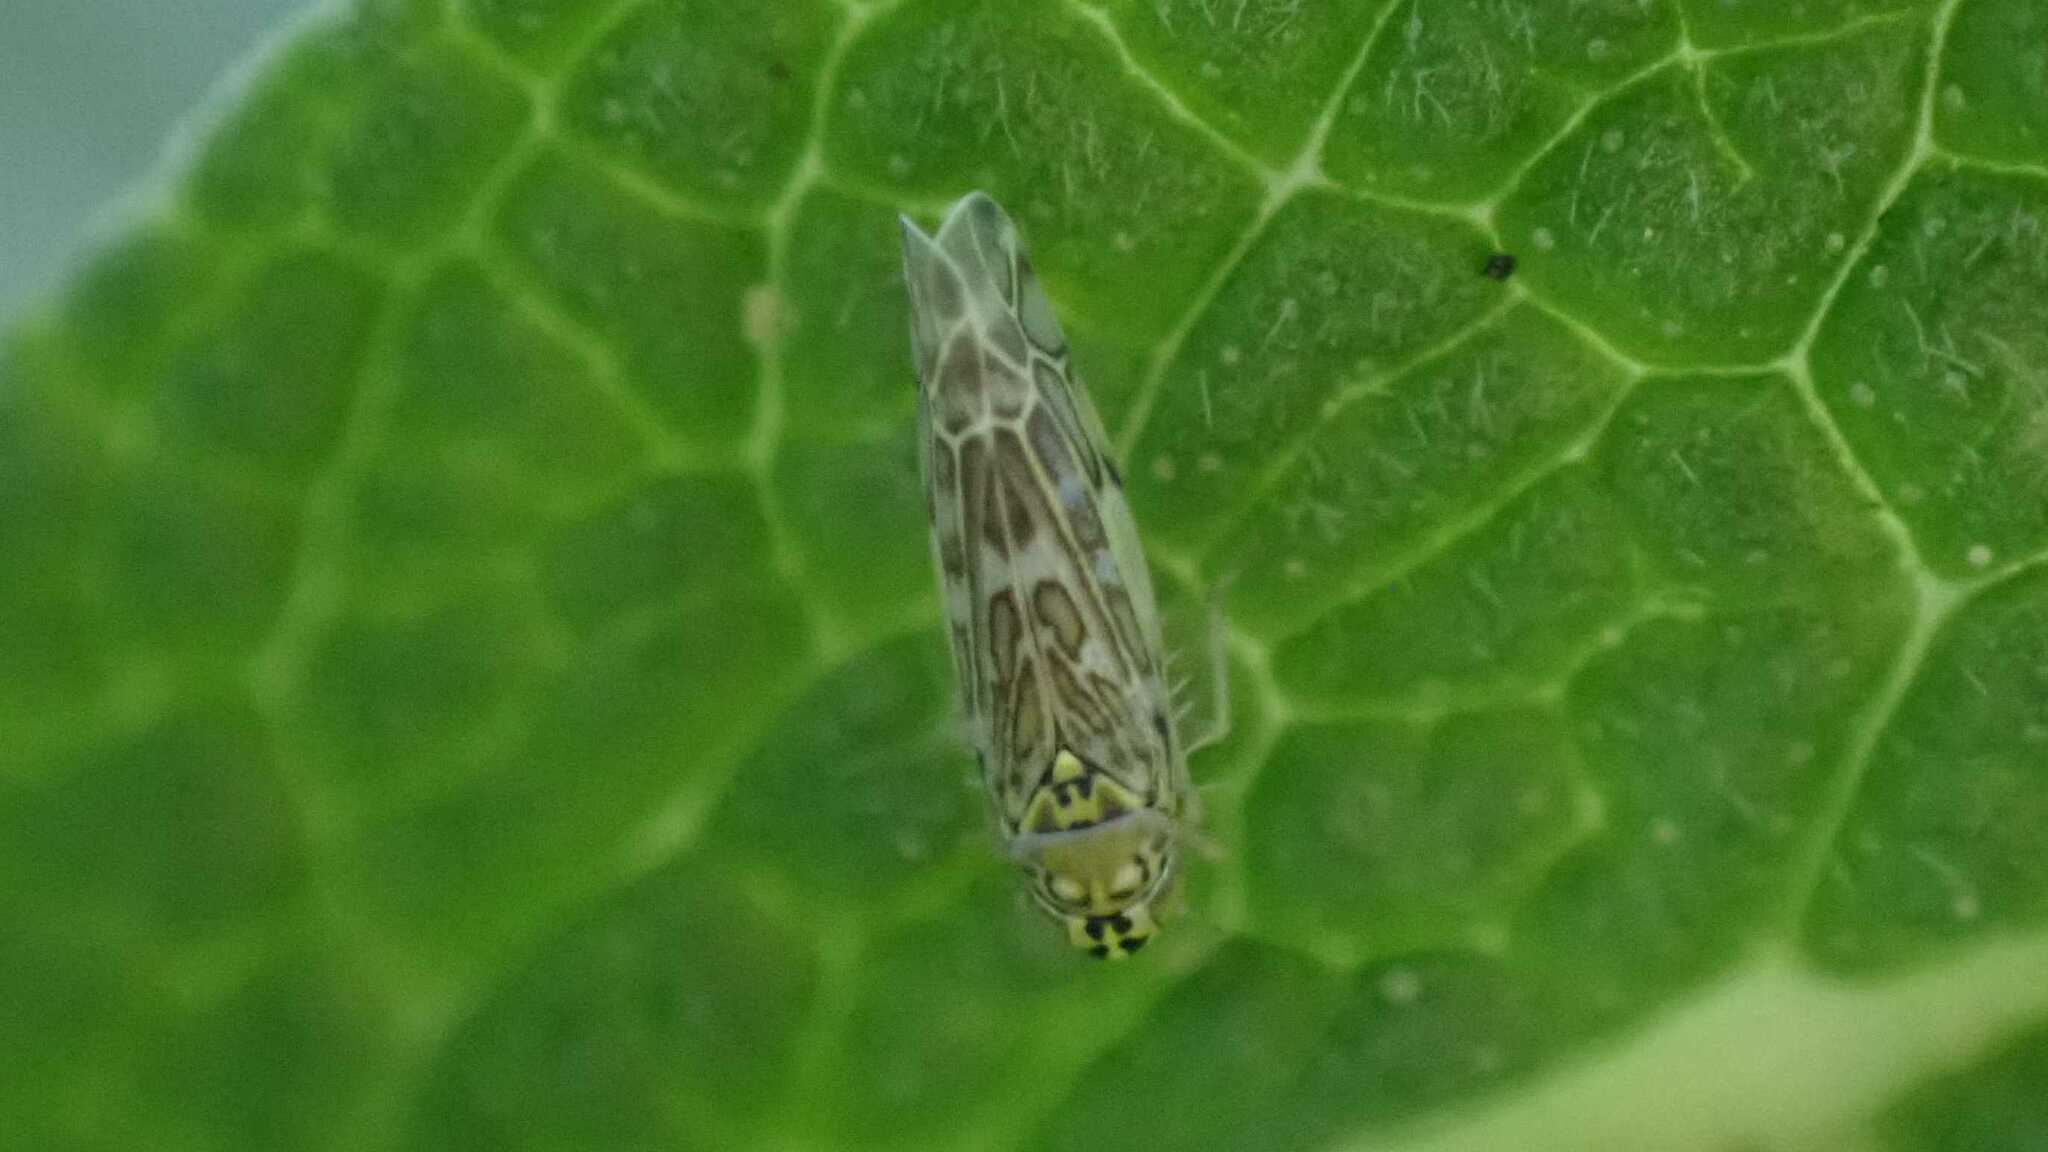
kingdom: Animalia
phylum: Arthropoda
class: Insecta
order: Hemiptera
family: Cicadellidae
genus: Eupteryx
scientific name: Eupteryx decemnotata
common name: Ligurian leafhopper
